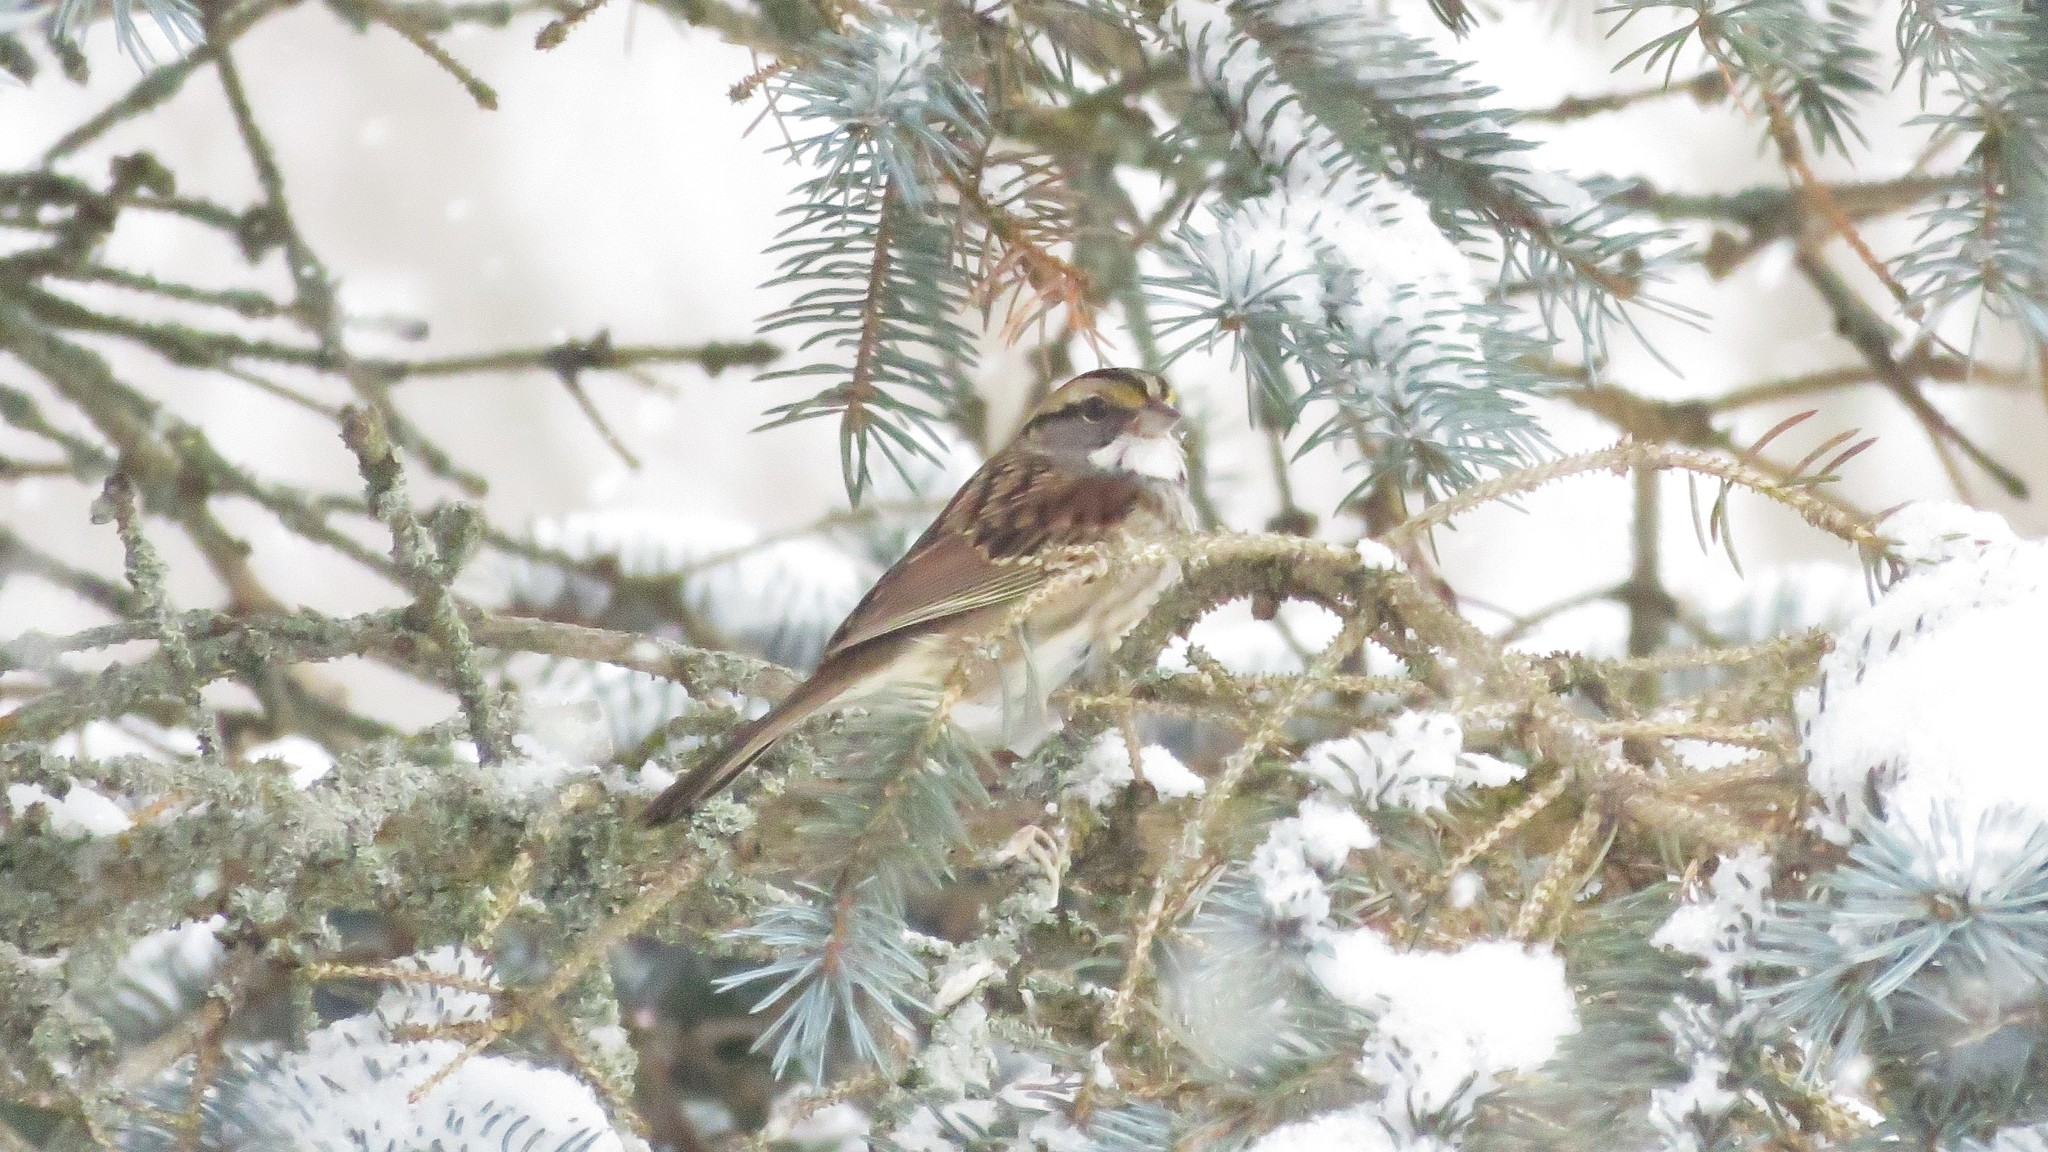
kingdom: Animalia
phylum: Chordata
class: Aves
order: Passeriformes
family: Passerellidae
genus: Zonotrichia
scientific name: Zonotrichia albicollis
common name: White-throated sparrow
